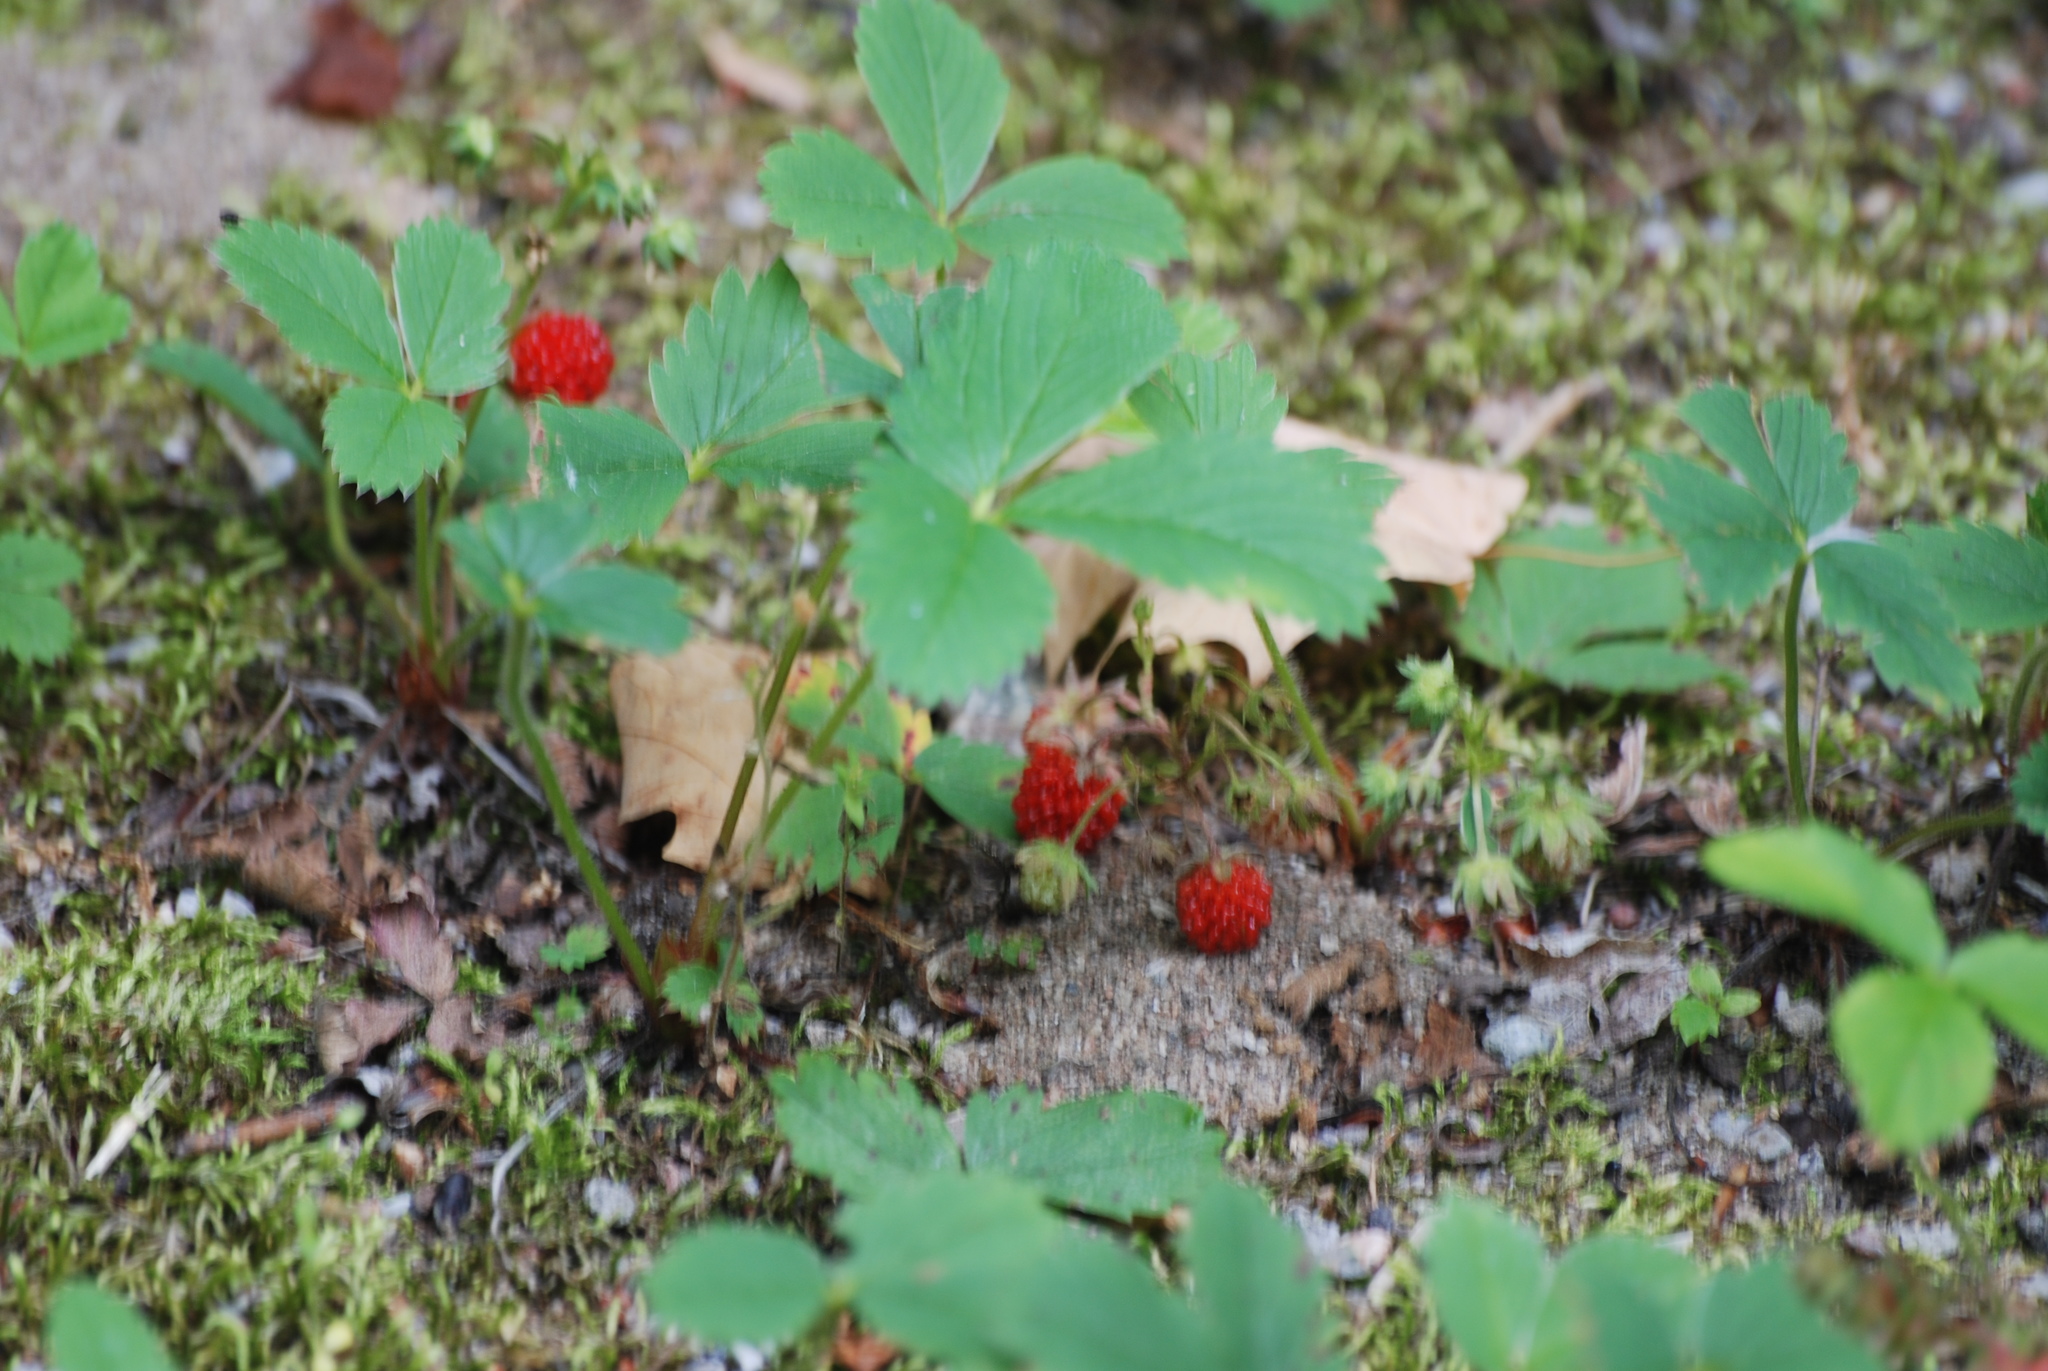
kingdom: Plantae
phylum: Tracheophyta
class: Magnoliopsida
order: Rosales
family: Rosaceae
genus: Fragaria
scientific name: Fragaria virginiana
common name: Thickleaved wild strawberry
